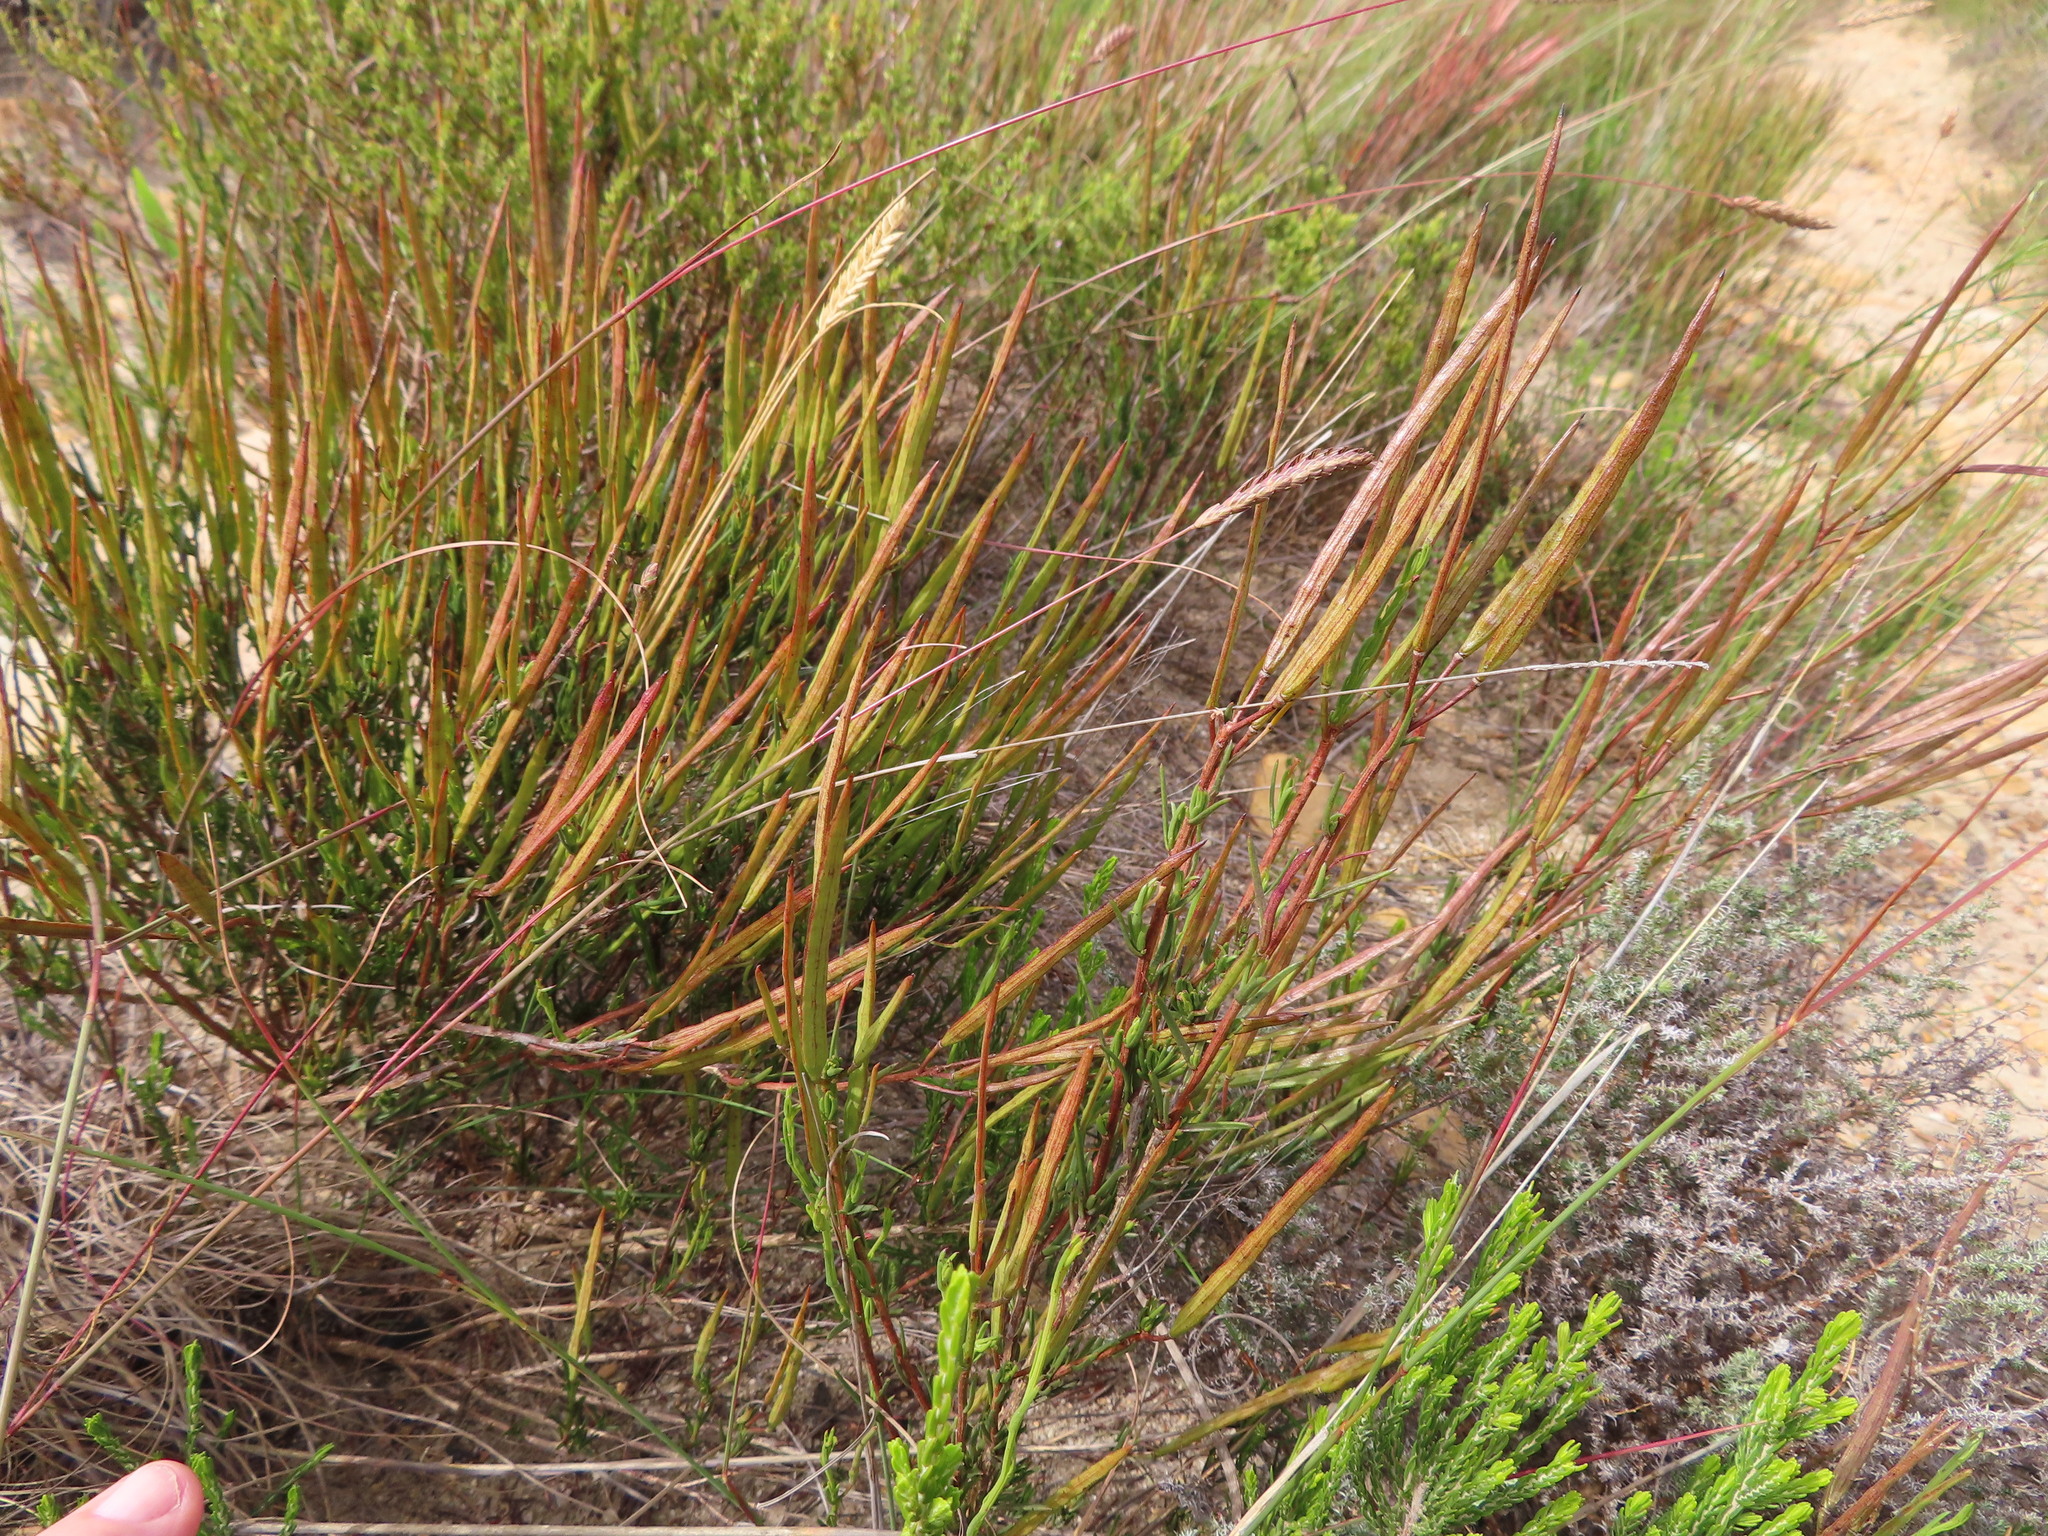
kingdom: Plantae
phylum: Tracheophyta
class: Magnoliopsida
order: Brassicales
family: Brassicaceae
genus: Heliophila
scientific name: Heliophila scoparia
